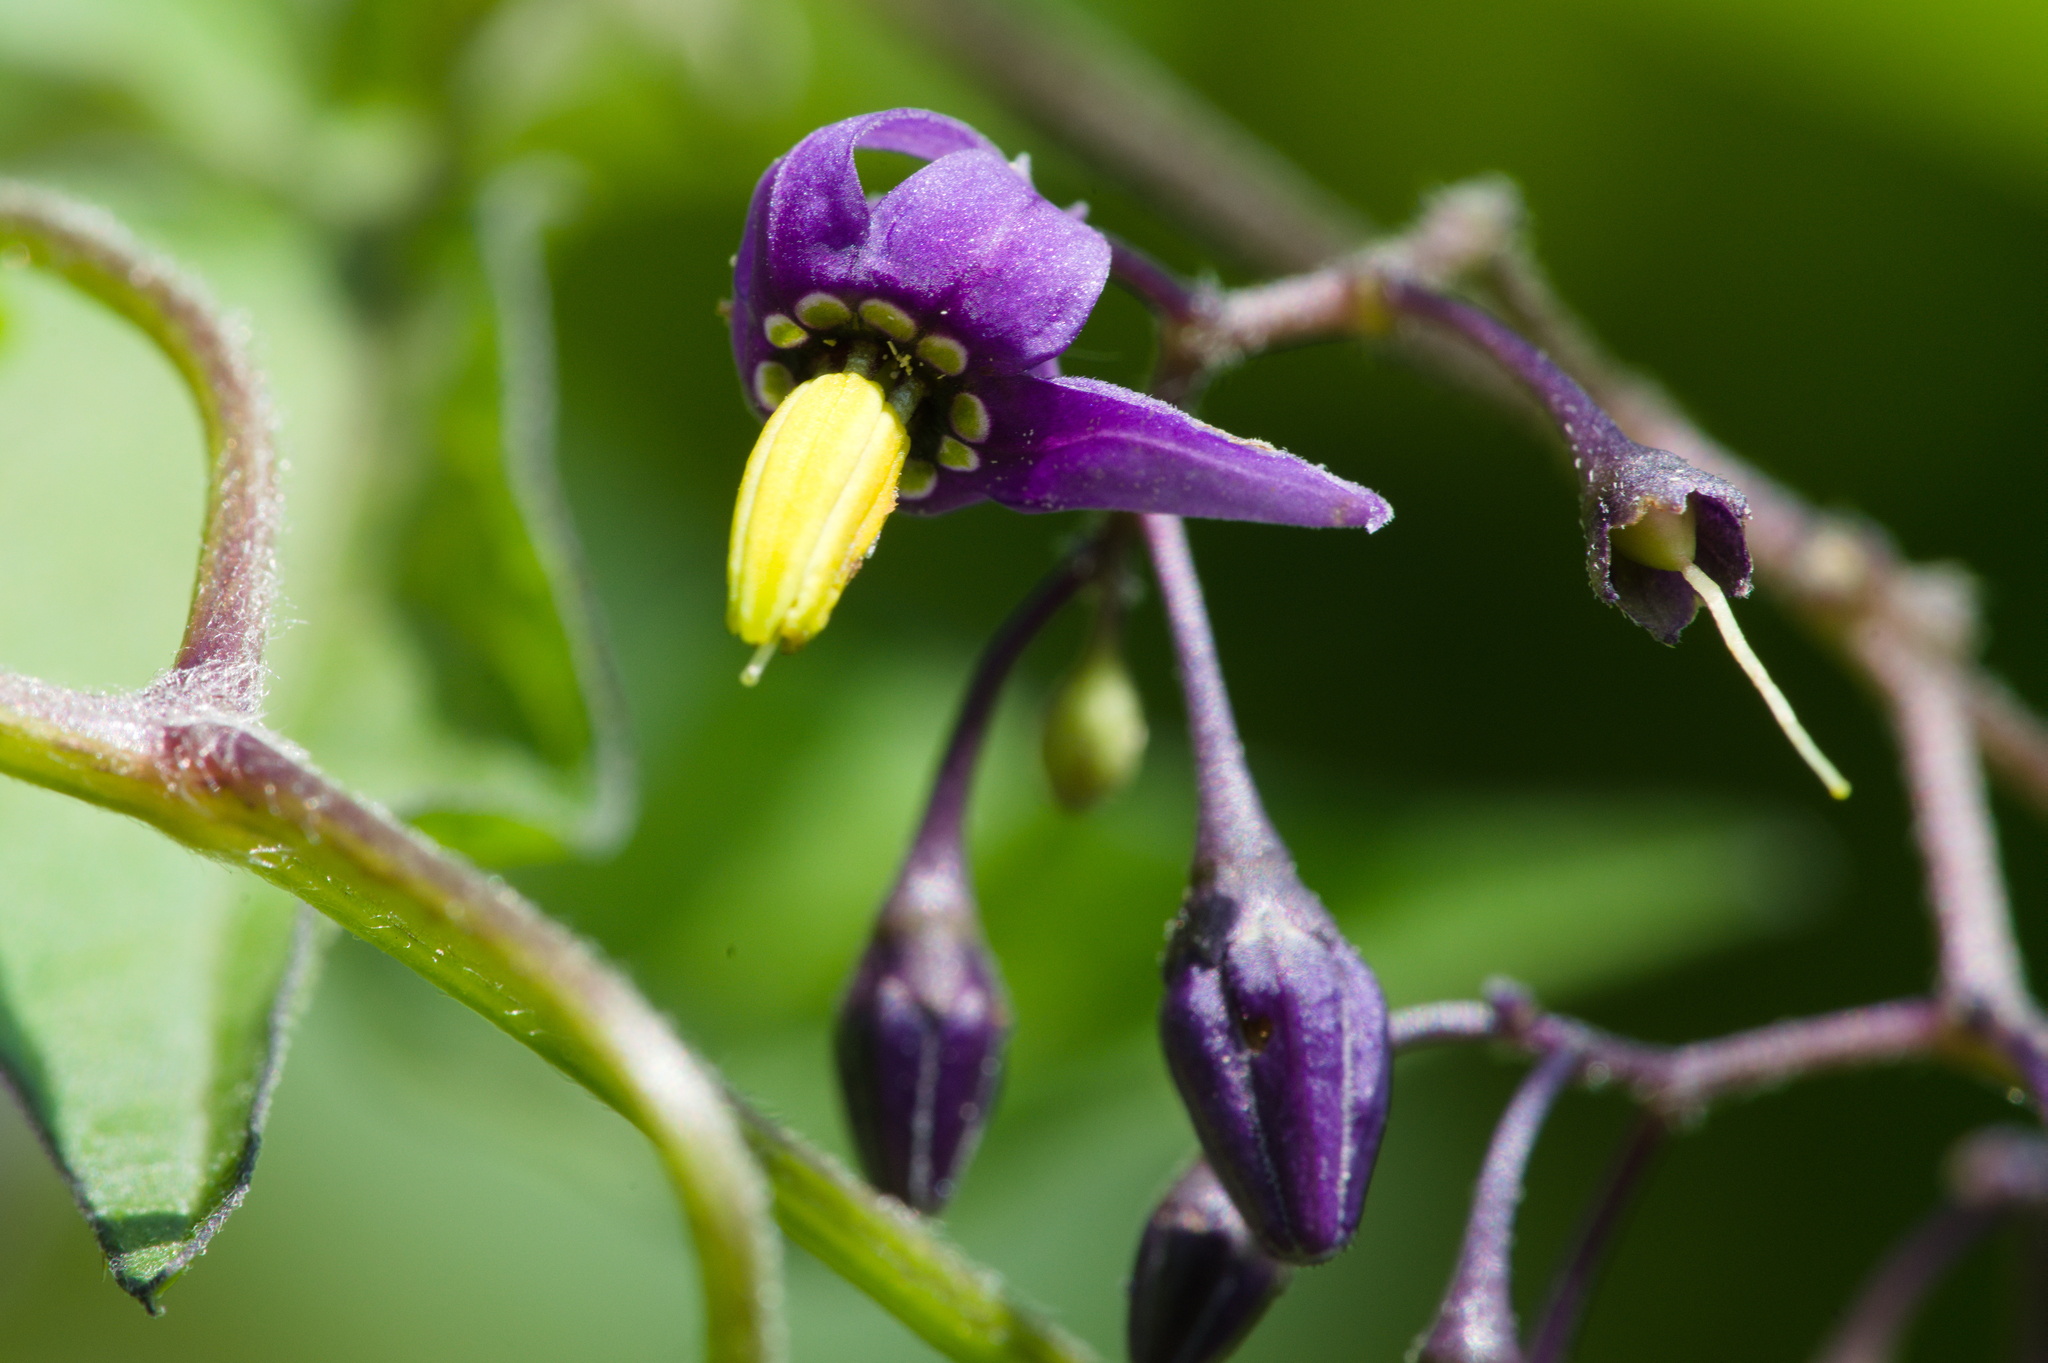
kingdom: Plantae
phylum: Tracheophyta
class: Magnoliopsida
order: Solanales
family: Solanaceae
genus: Solanum
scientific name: Solanum dulcamara
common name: Climbing nightshade
